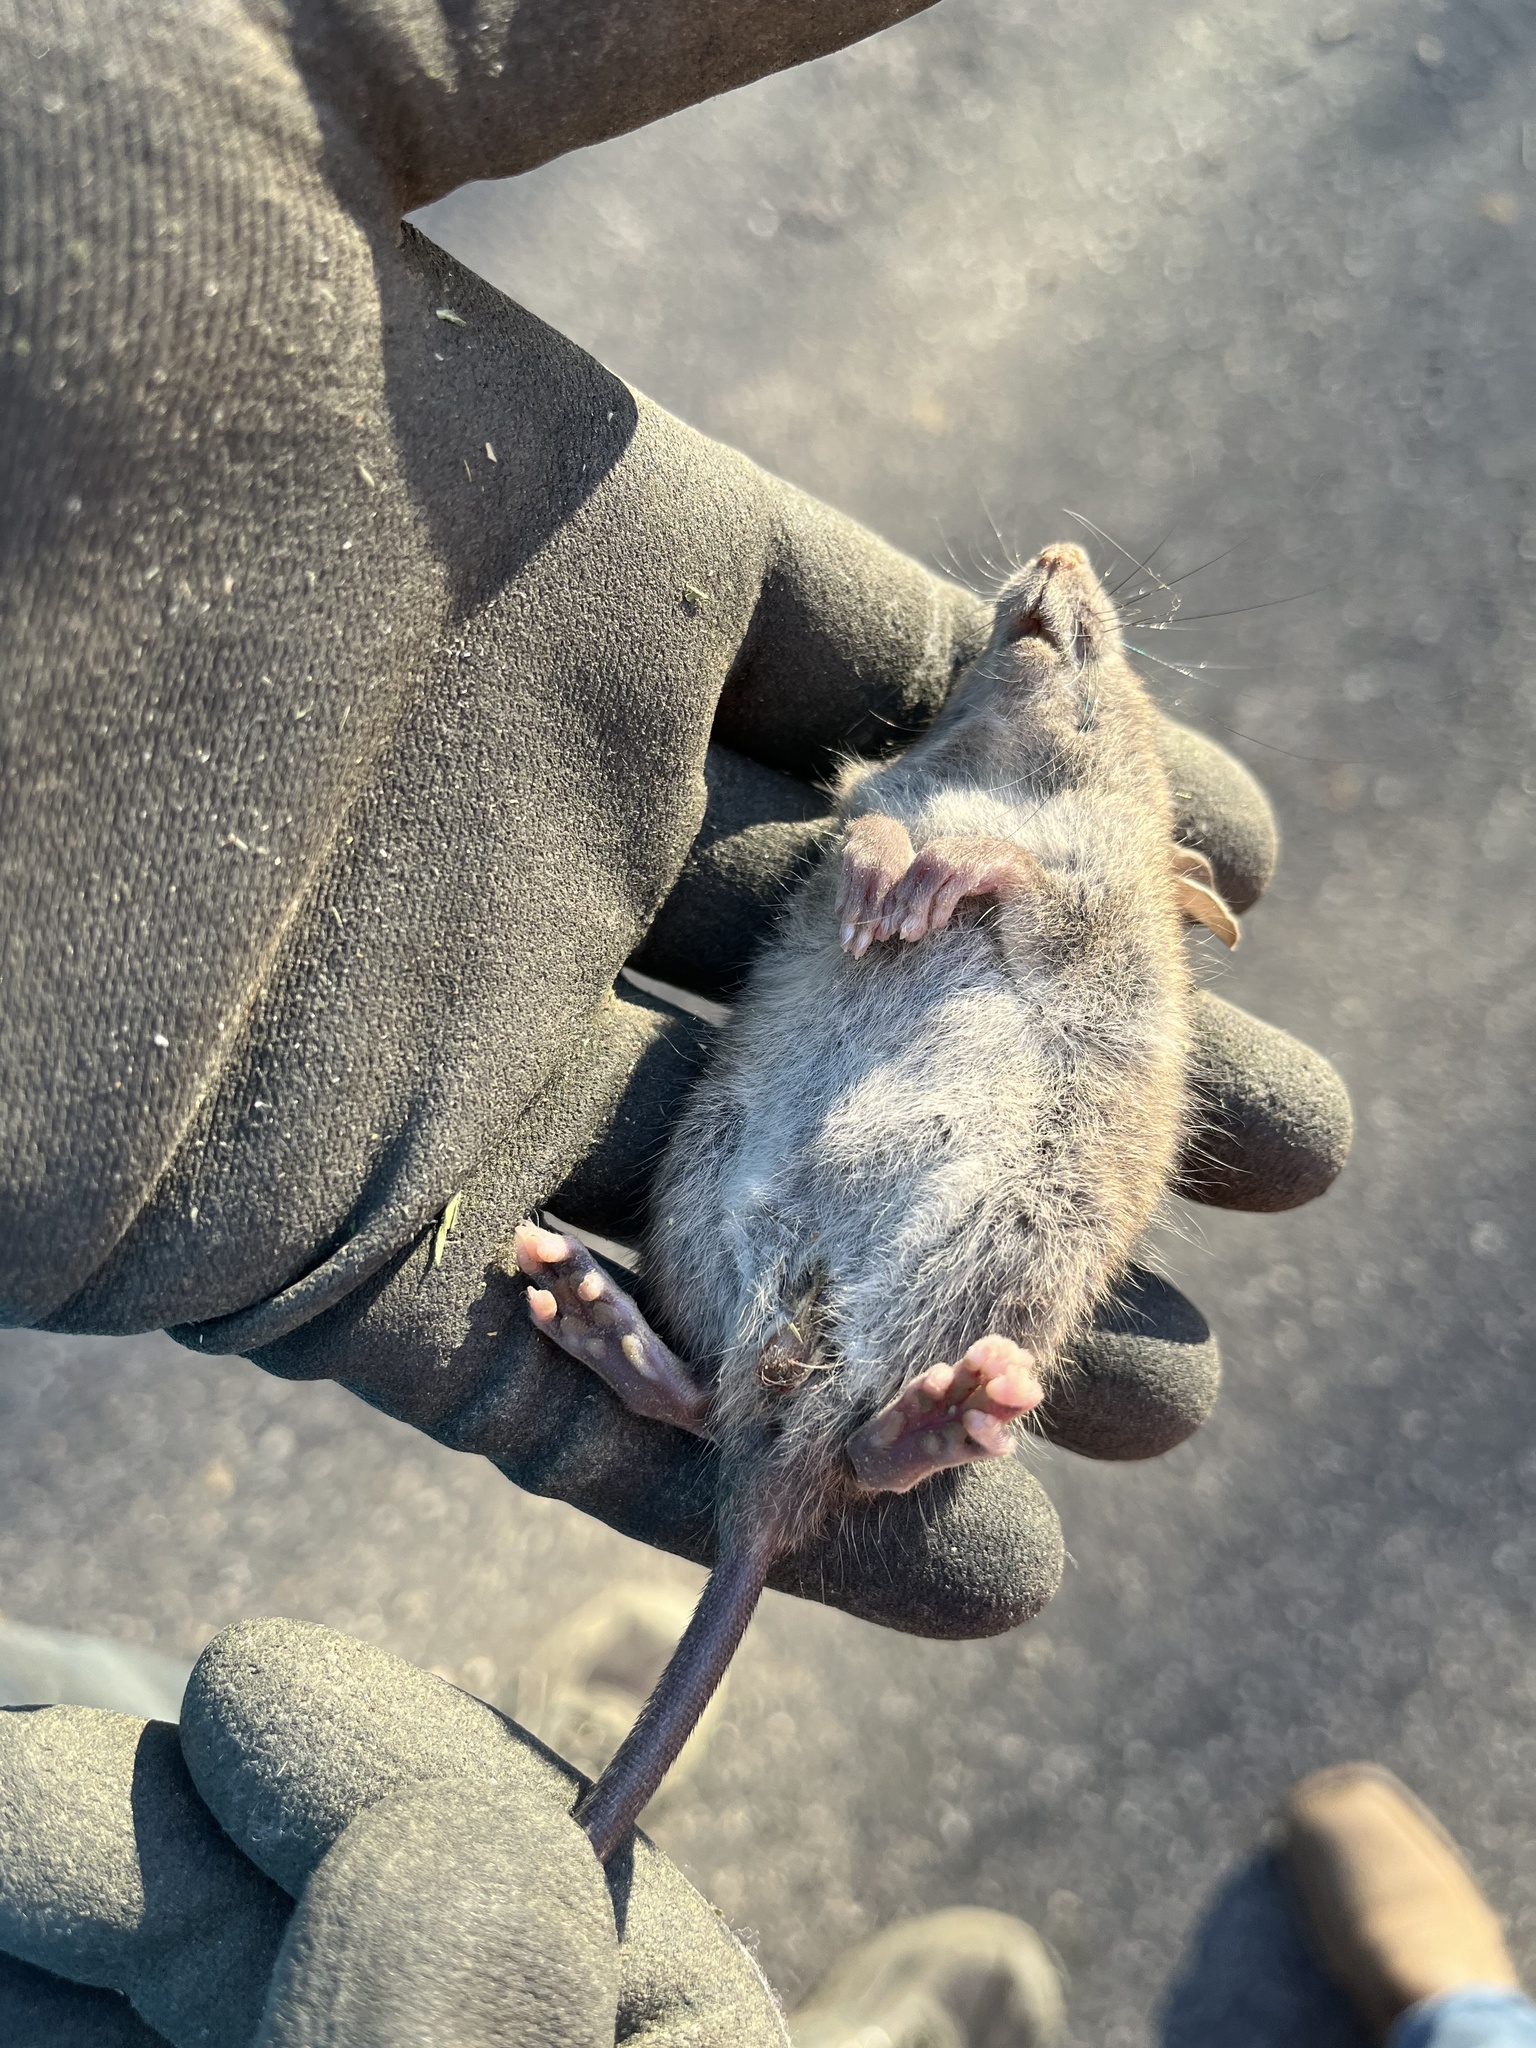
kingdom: Animalia
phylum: Chordata
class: Mammalia
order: Rodentia
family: Muridae
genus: Rattus
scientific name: Rattus norvegicus
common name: Brown rat
